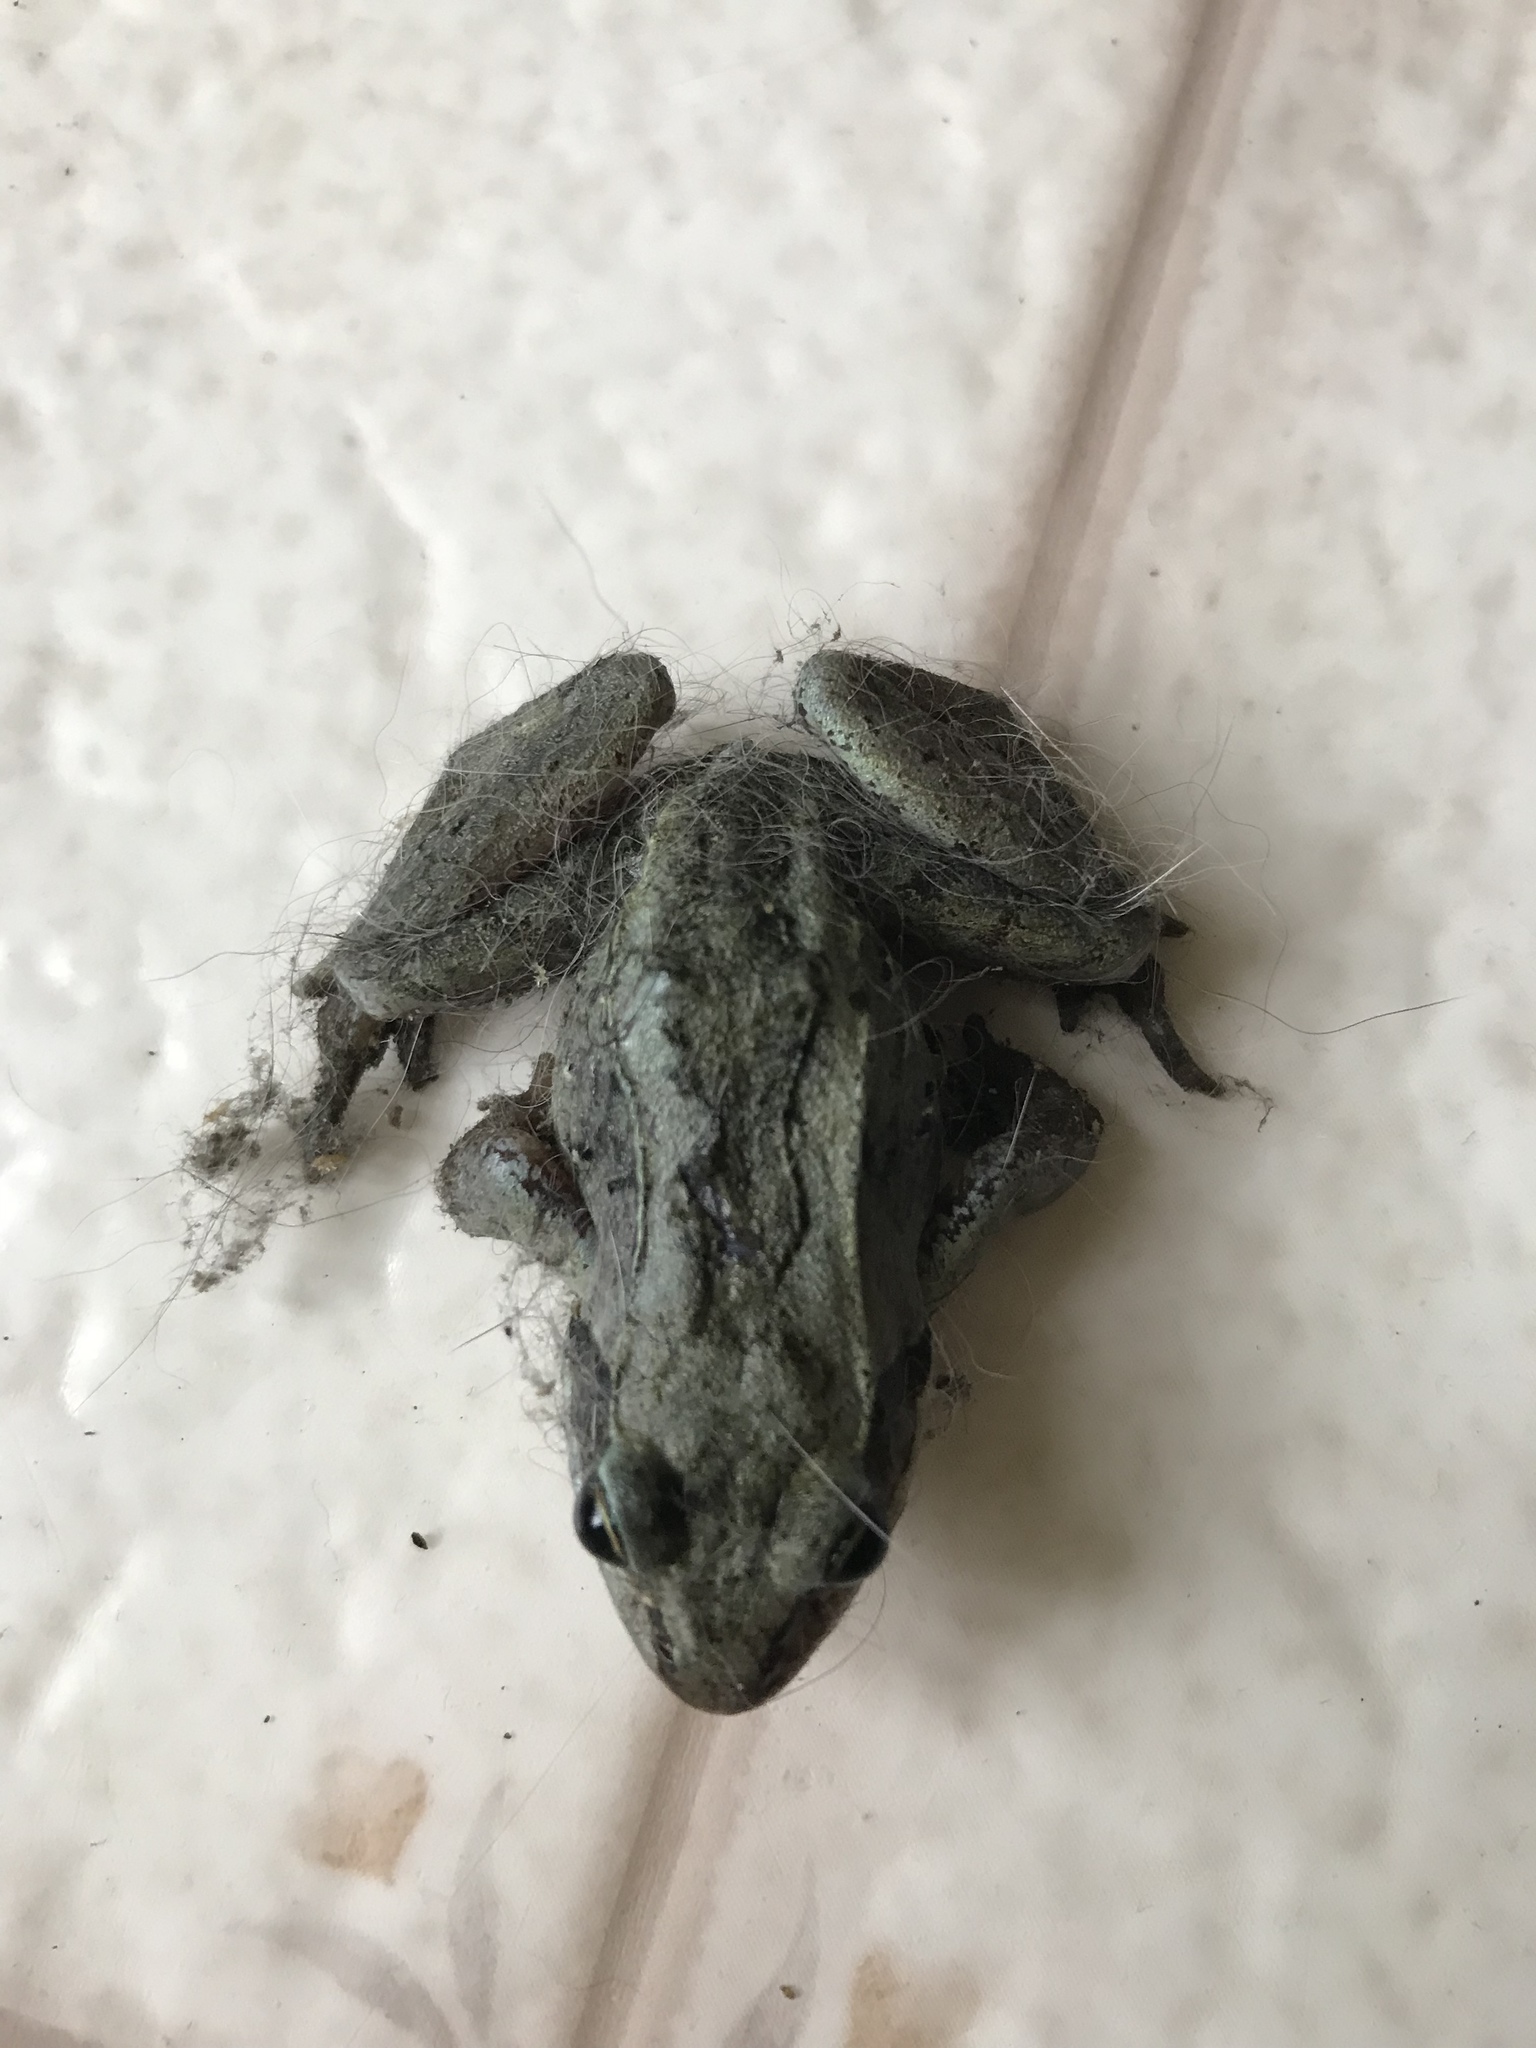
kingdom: Animalia
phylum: Chordata
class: Amphibia
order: Anura
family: Ranidae
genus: Lithobates
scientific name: Lithobates sylvaticus
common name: Wood frog
